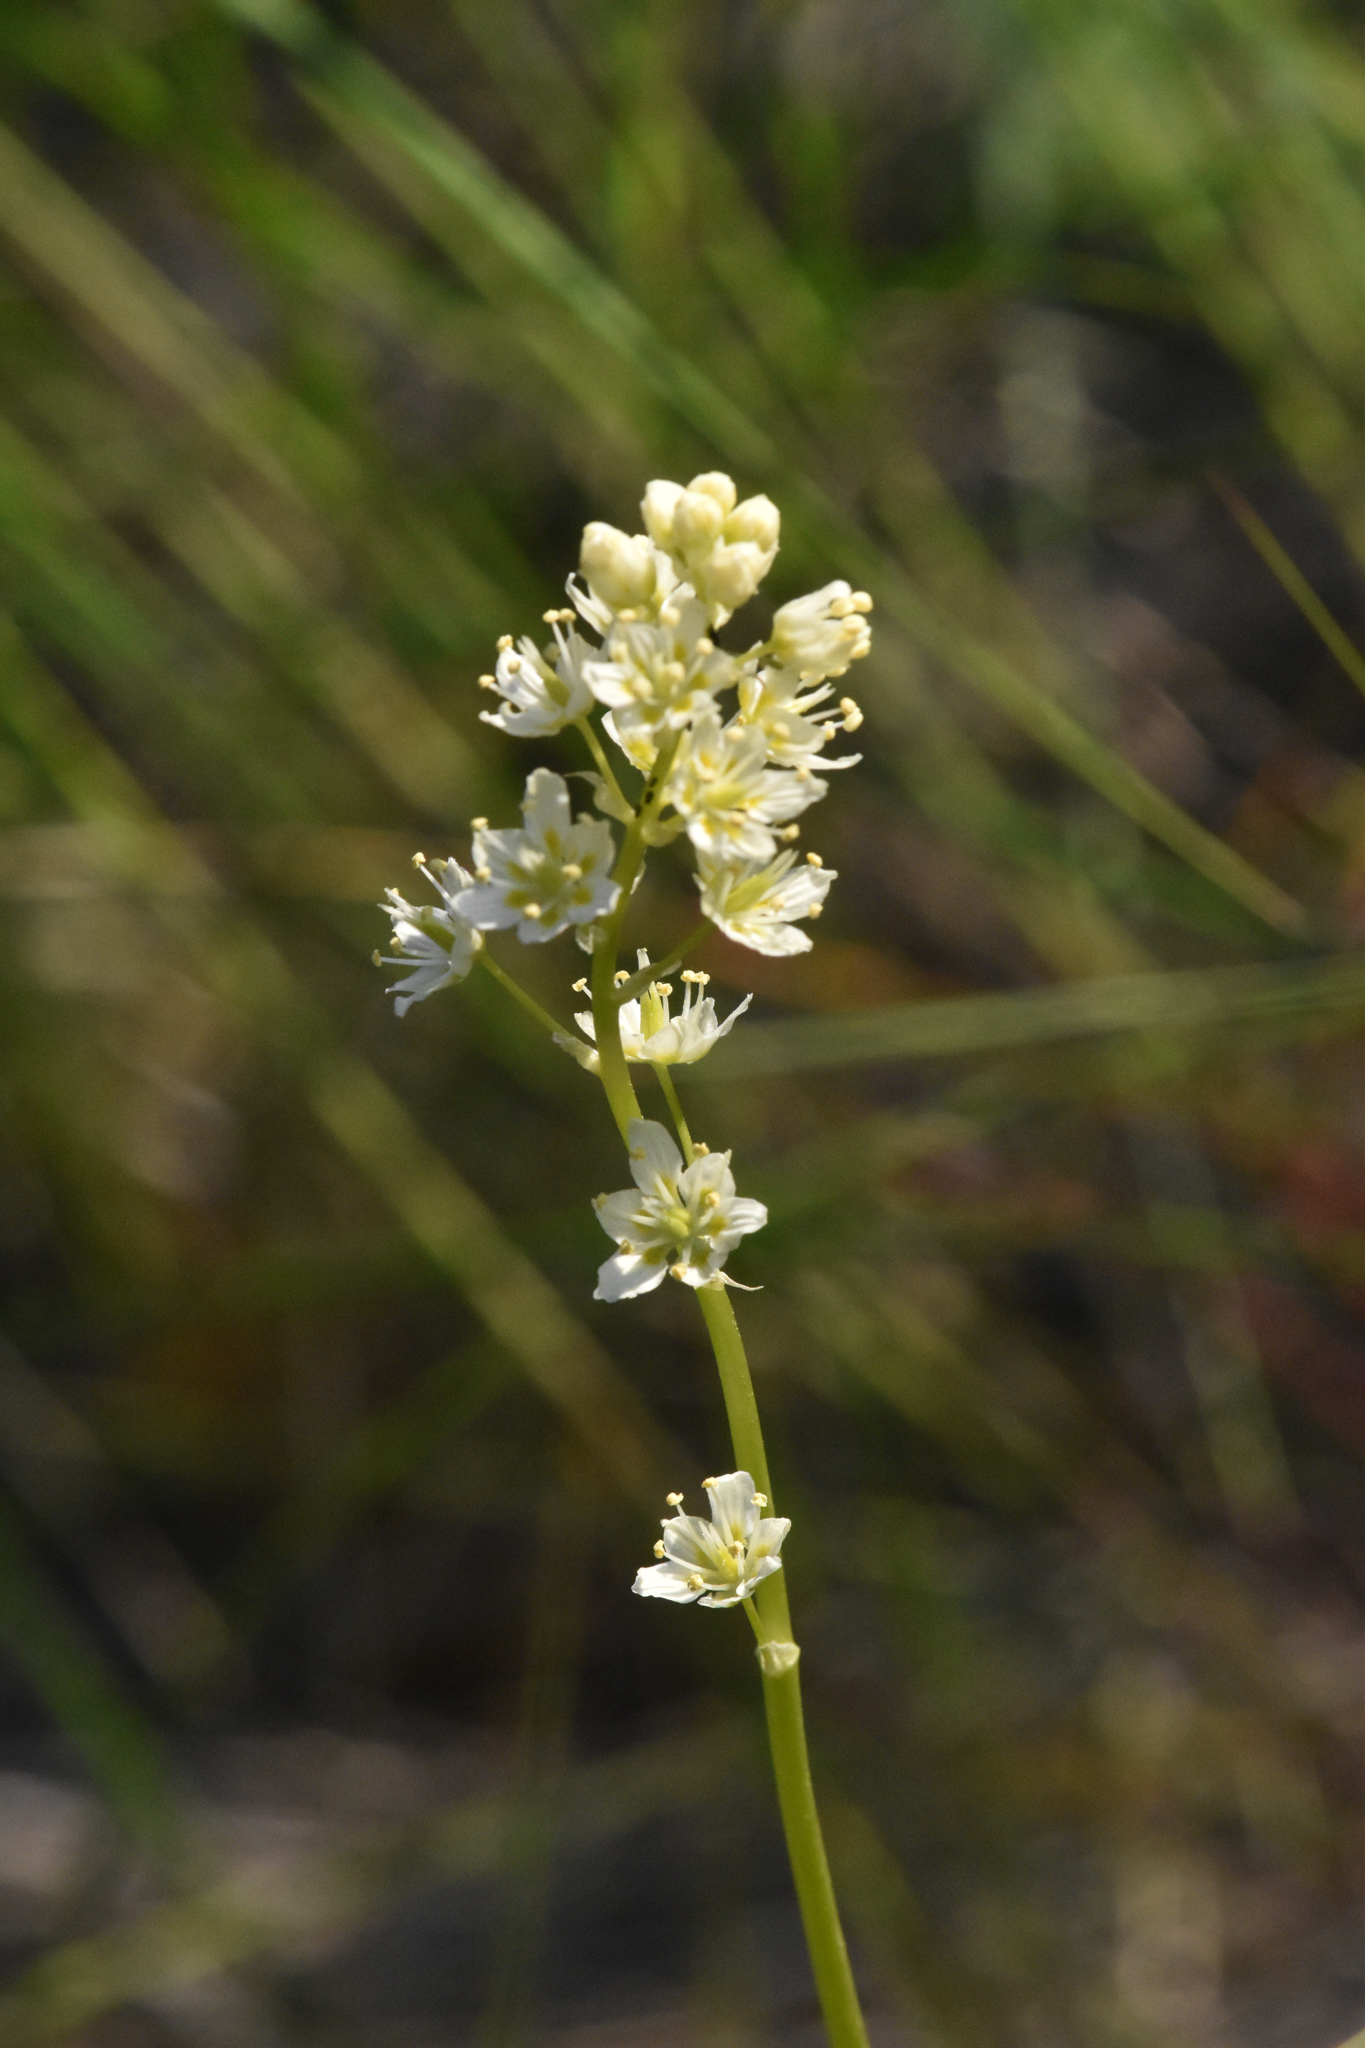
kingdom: Plantae
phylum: Tracheophyta
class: Liliopsida
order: Liliales
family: Melanthiaceae
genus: Toxicoscordion
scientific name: Toxicoscordion venenosum
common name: Meadow death camas
